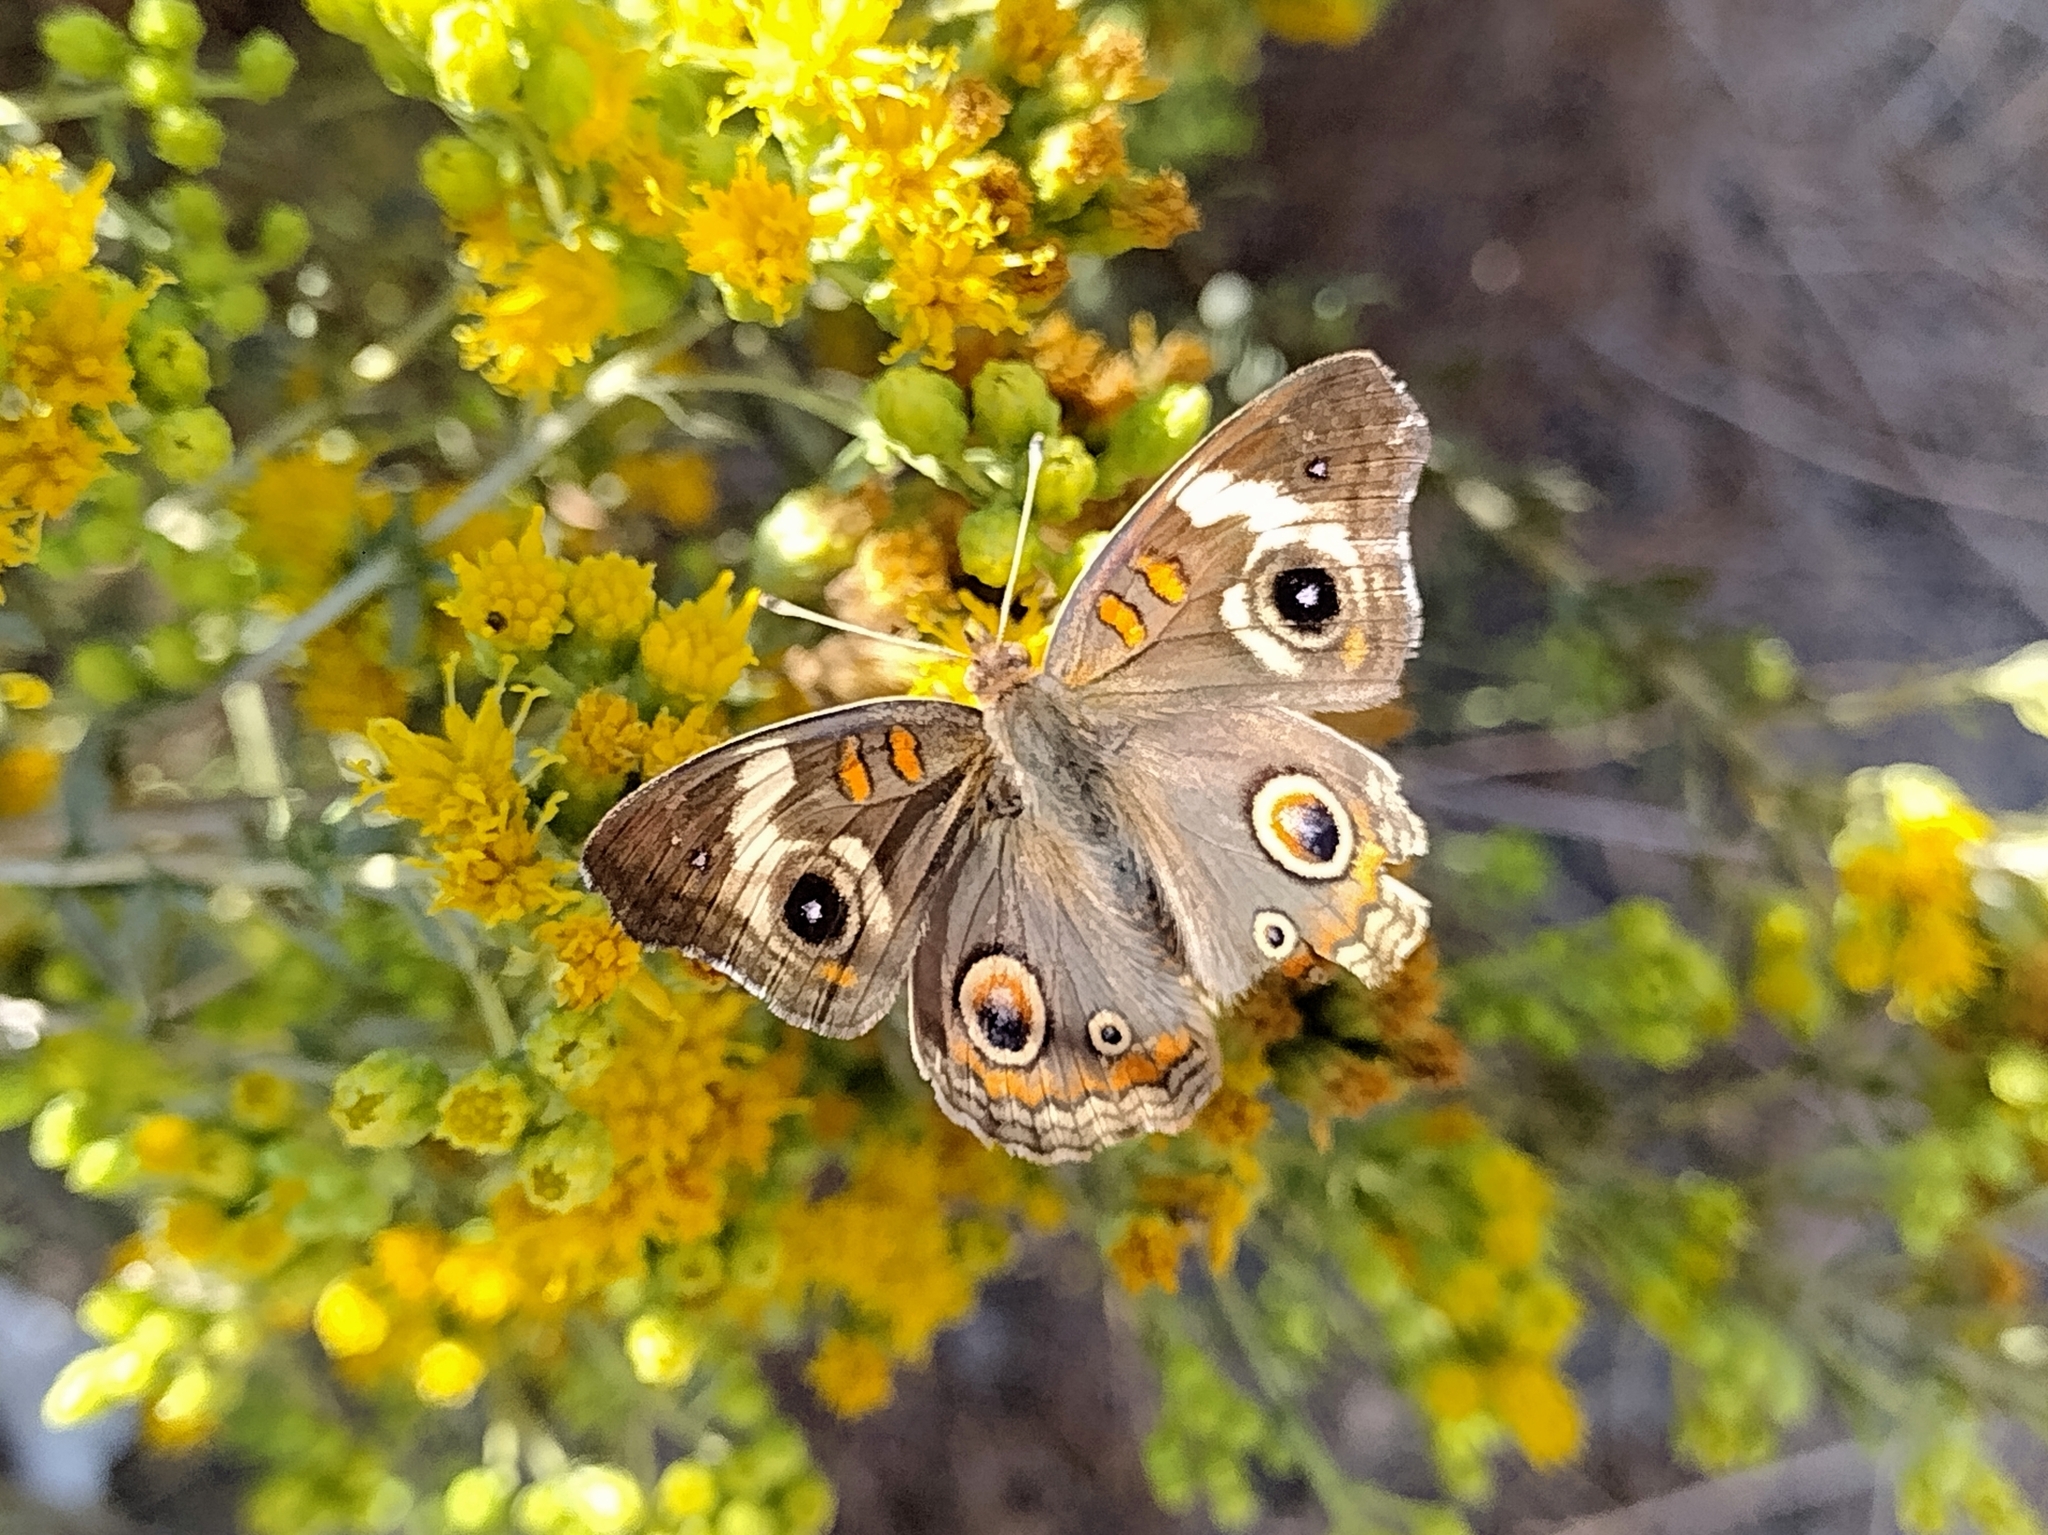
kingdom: Animalia
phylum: Arthropoda
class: Insecta
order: Lepidoptera
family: Nymphalidae
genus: Junonia
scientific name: Junonia grisea
